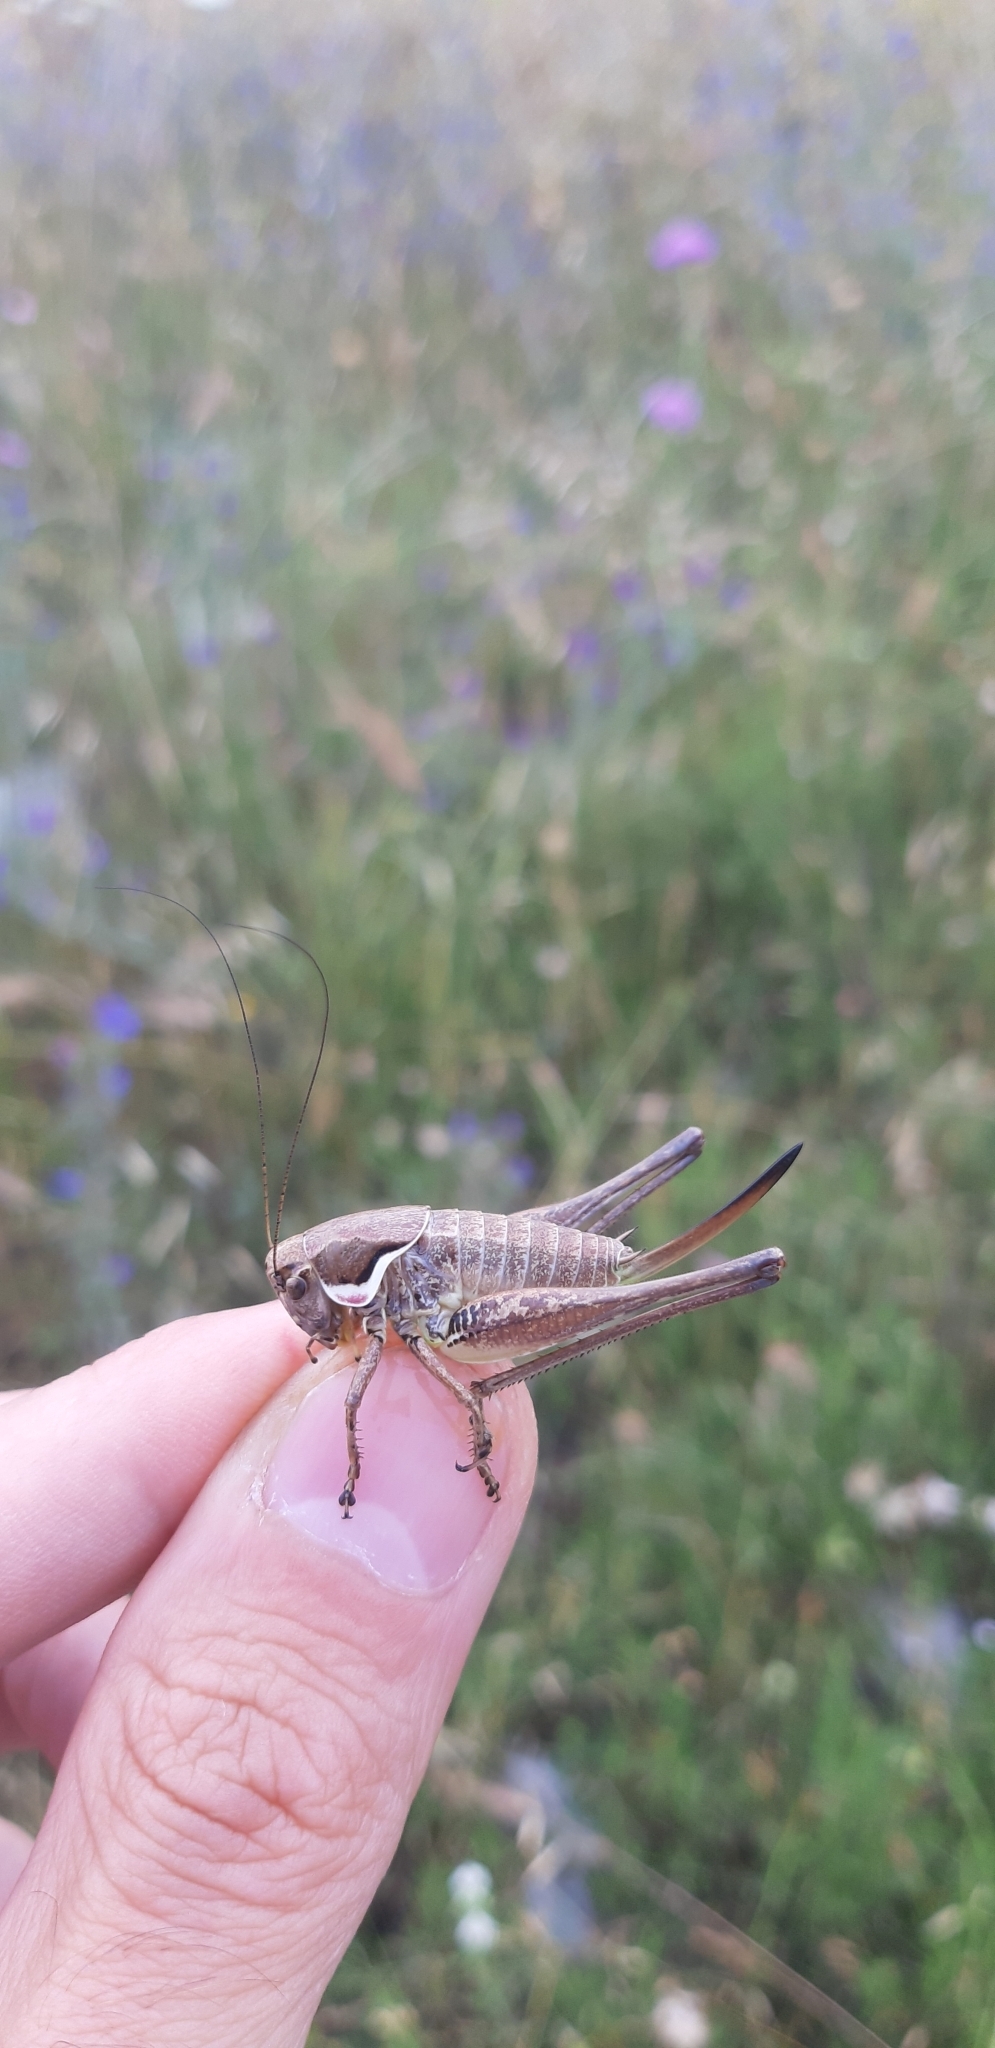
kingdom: Animalia
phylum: Arthropoda
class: Insecta
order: Orthoptera
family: Tettigoniidae
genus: Pholidoptera
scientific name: Pholidoptera femorata
